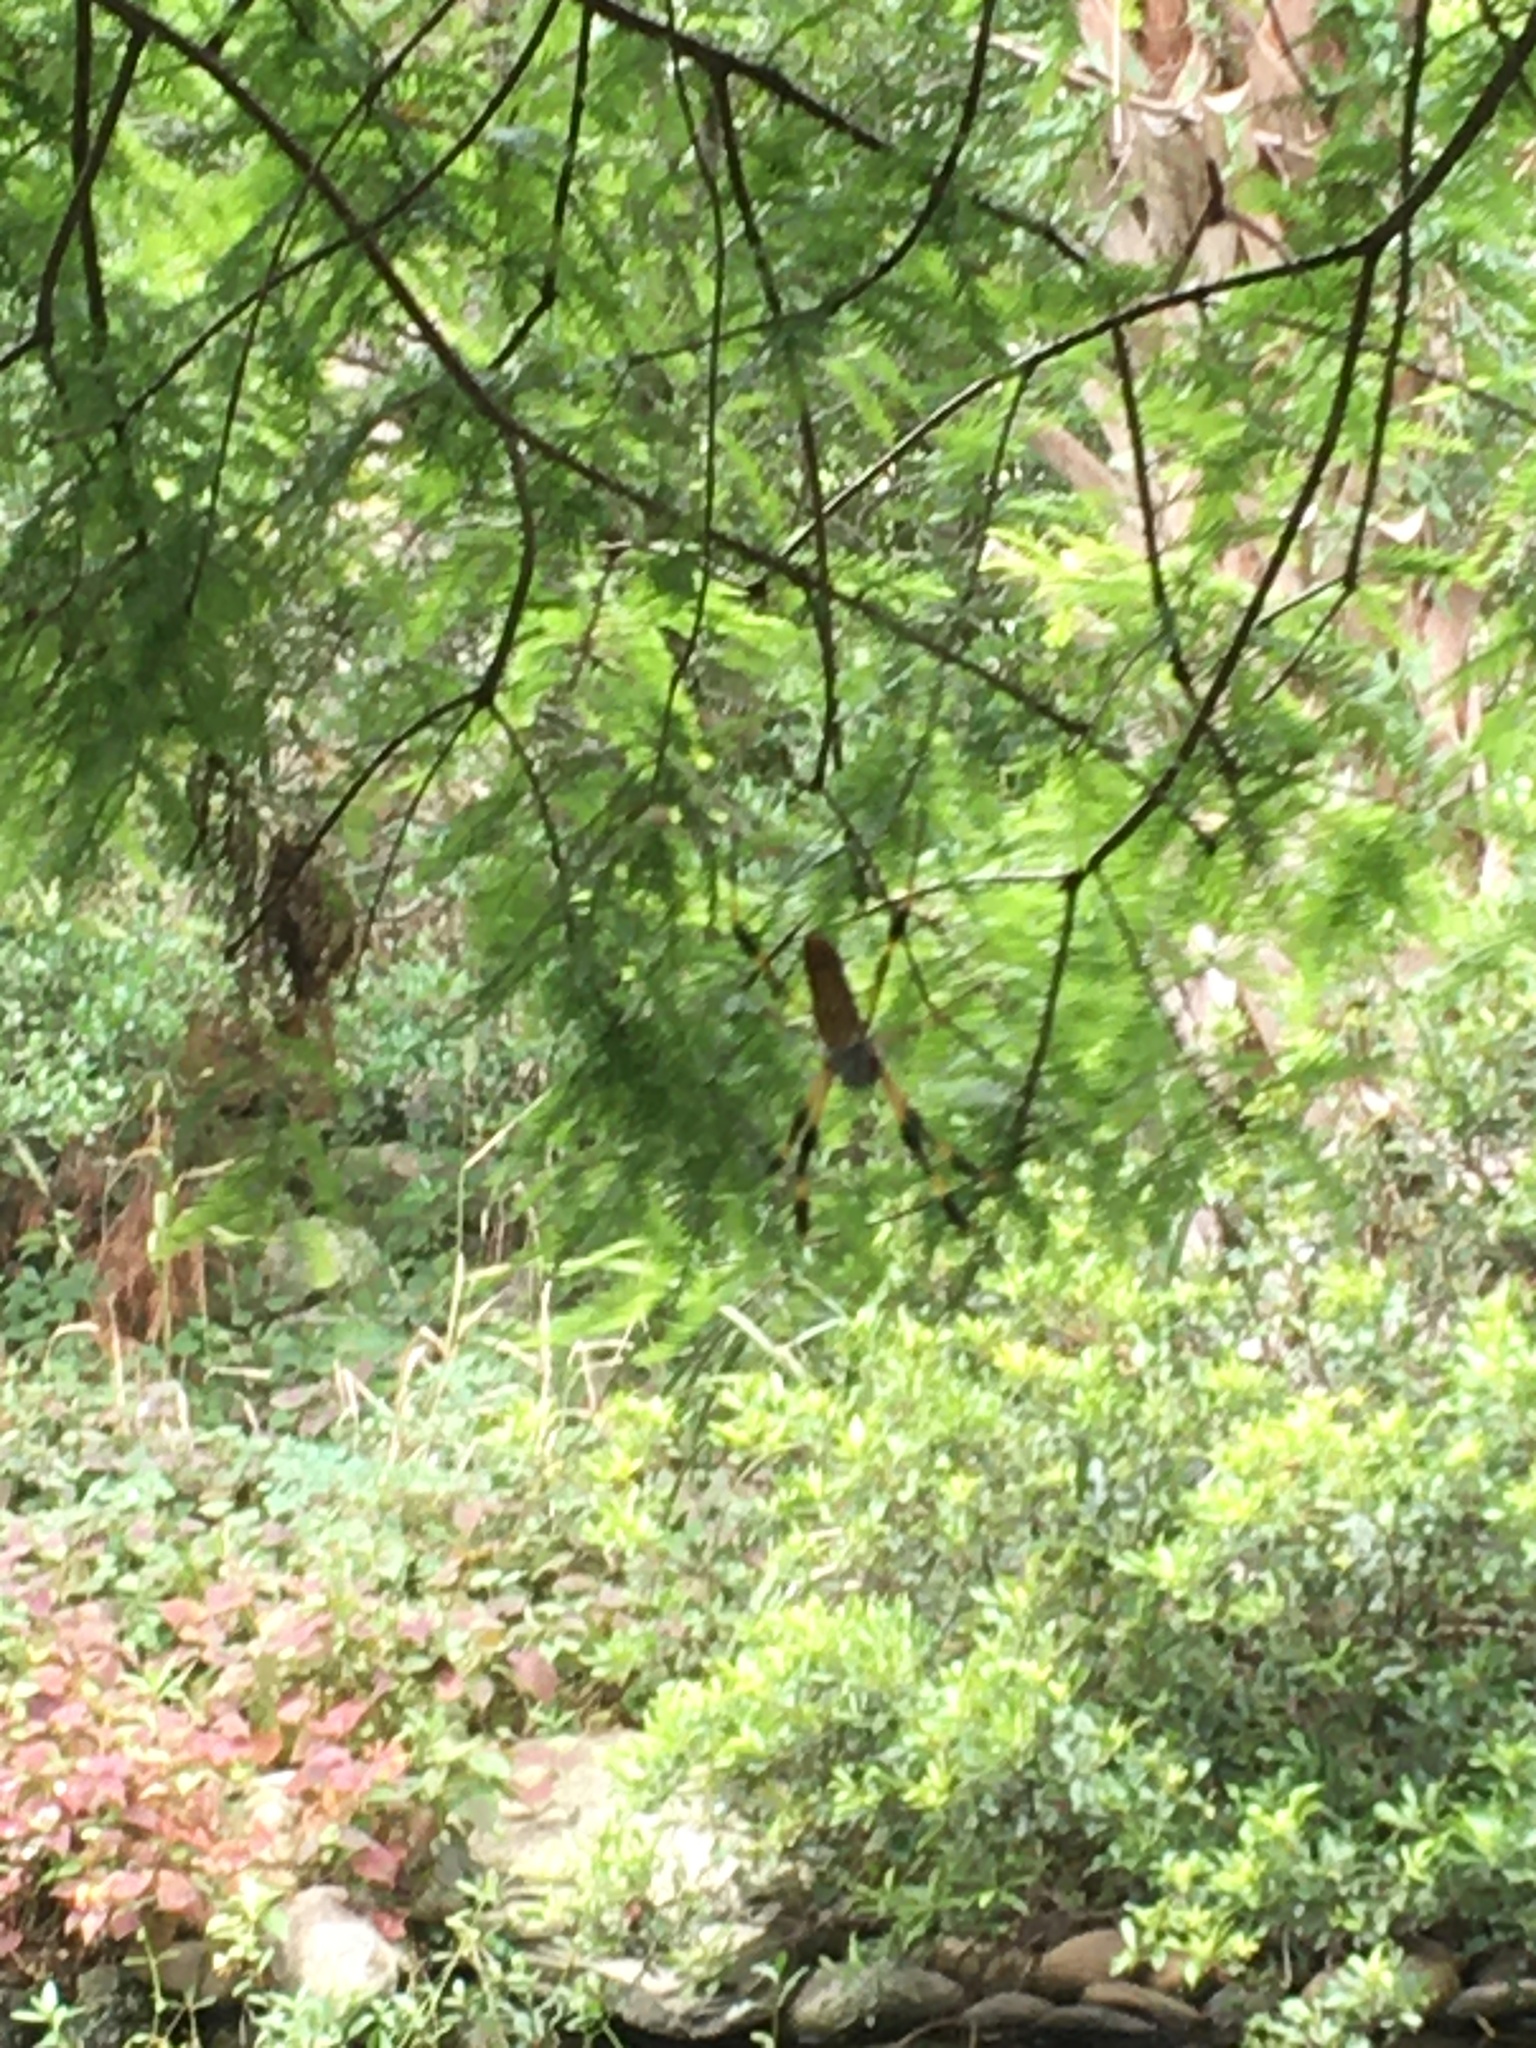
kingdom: Animalia
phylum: Arthropoda
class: Arachnida
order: Araneae
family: Araneidae
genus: Trichonephila
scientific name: Trichonephila clavipes
